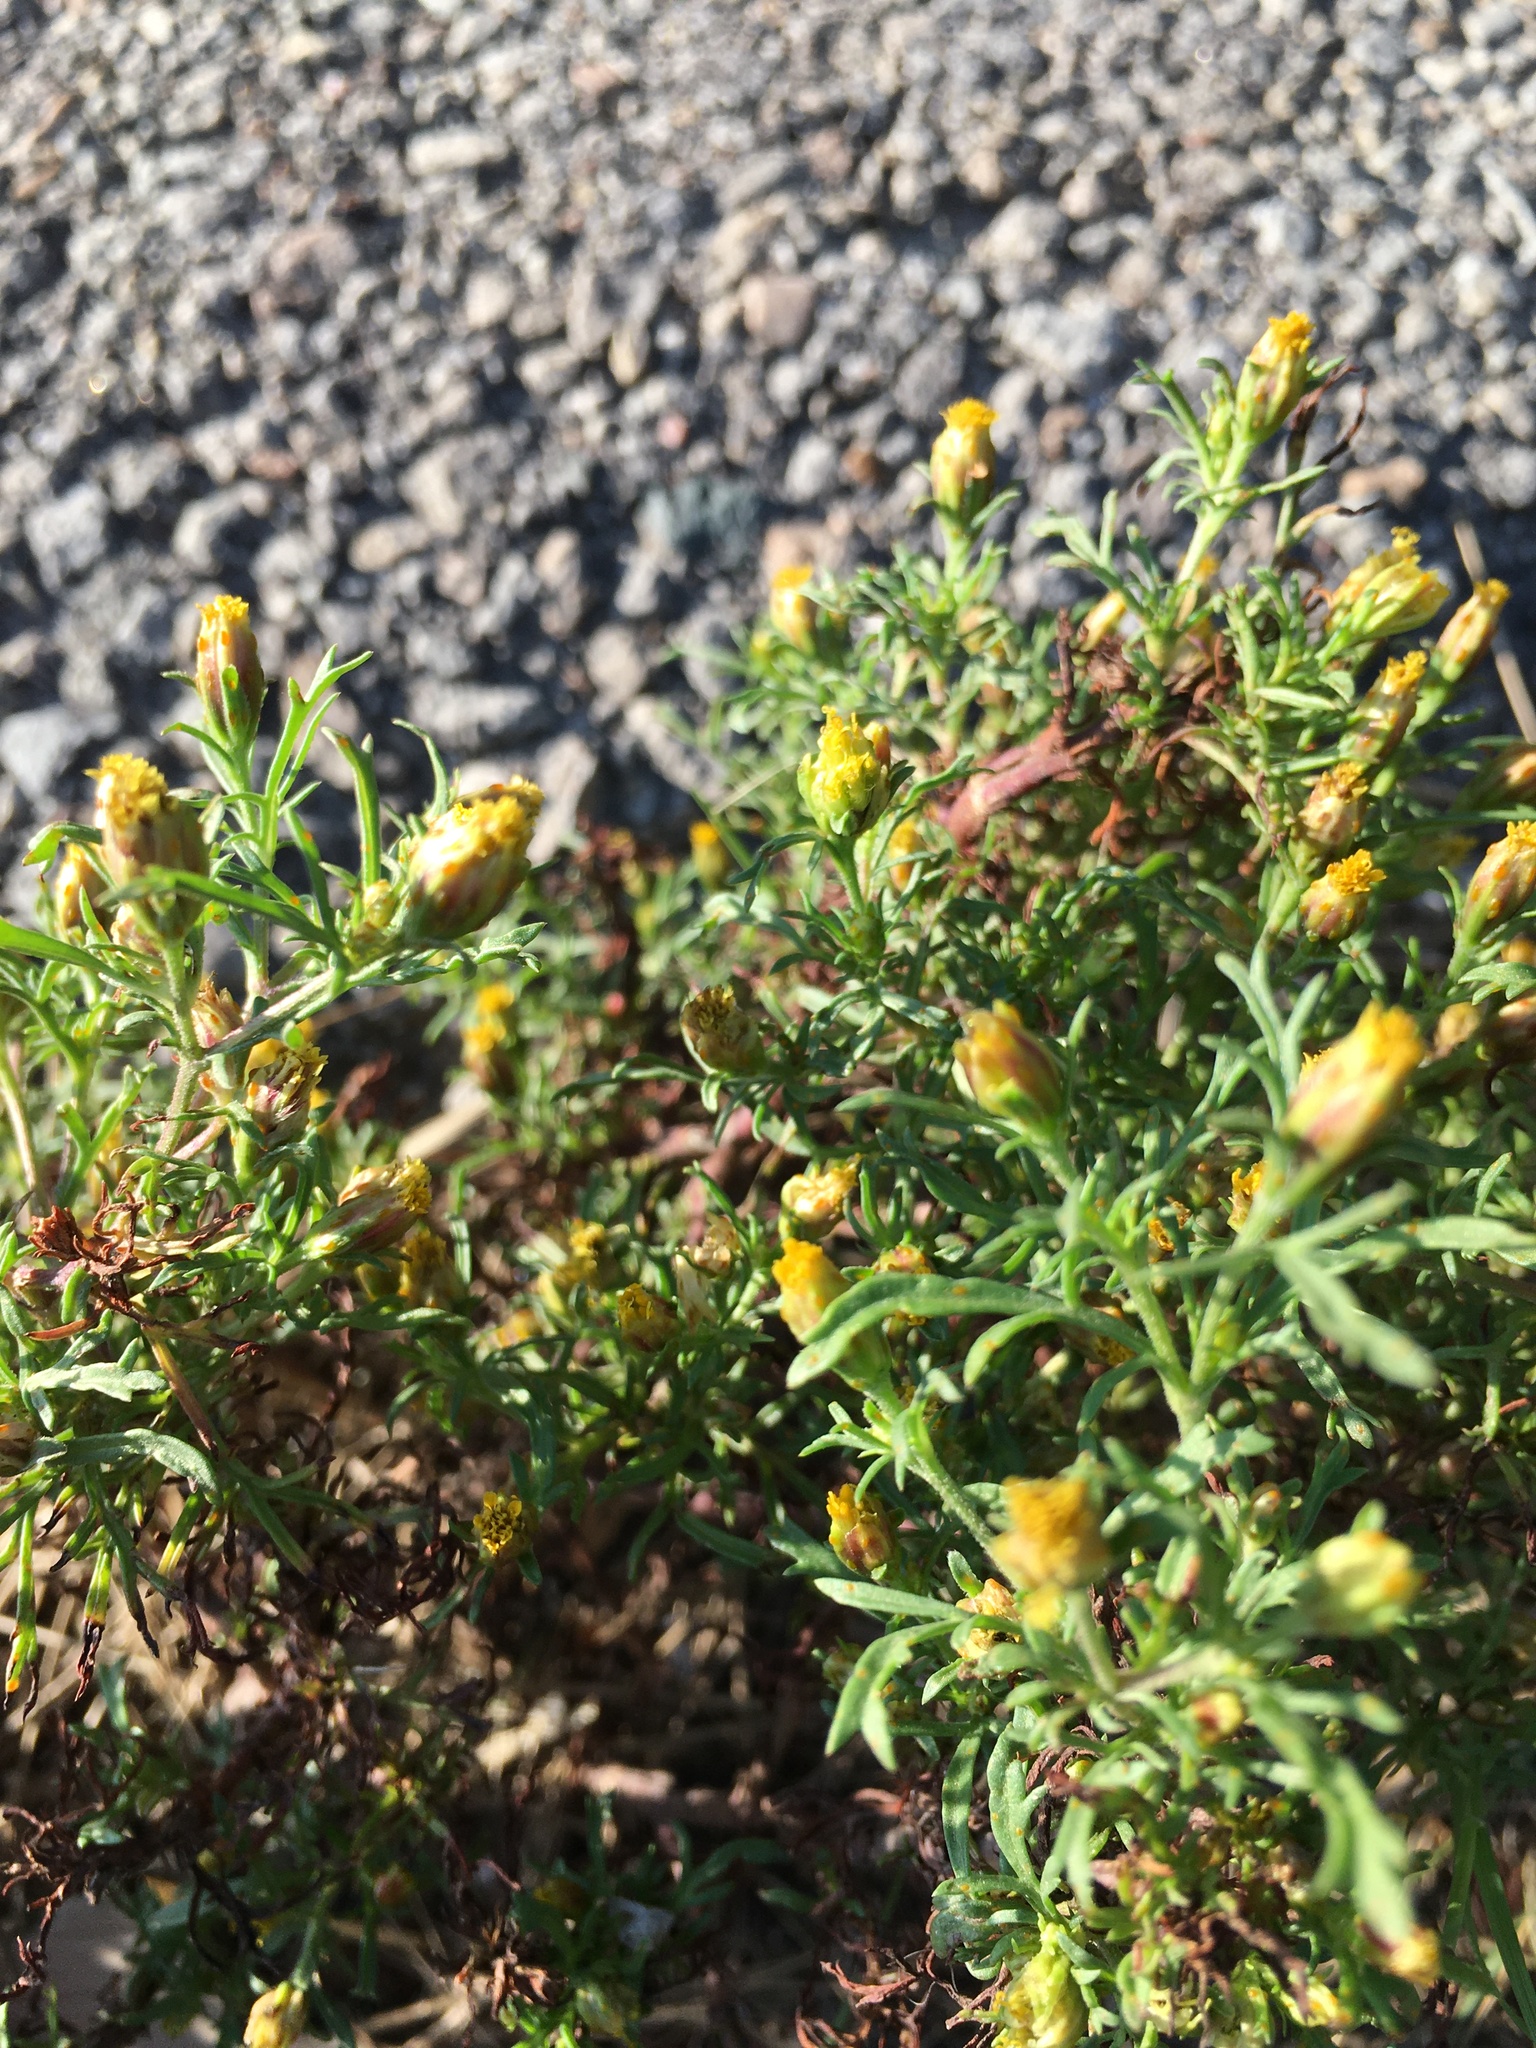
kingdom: Plantae
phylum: Tracheophyta
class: Magnoliopsida
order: Asterales
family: Asteraceae
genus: Dyssodia
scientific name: Dyssodia papposa
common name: Dogweed
